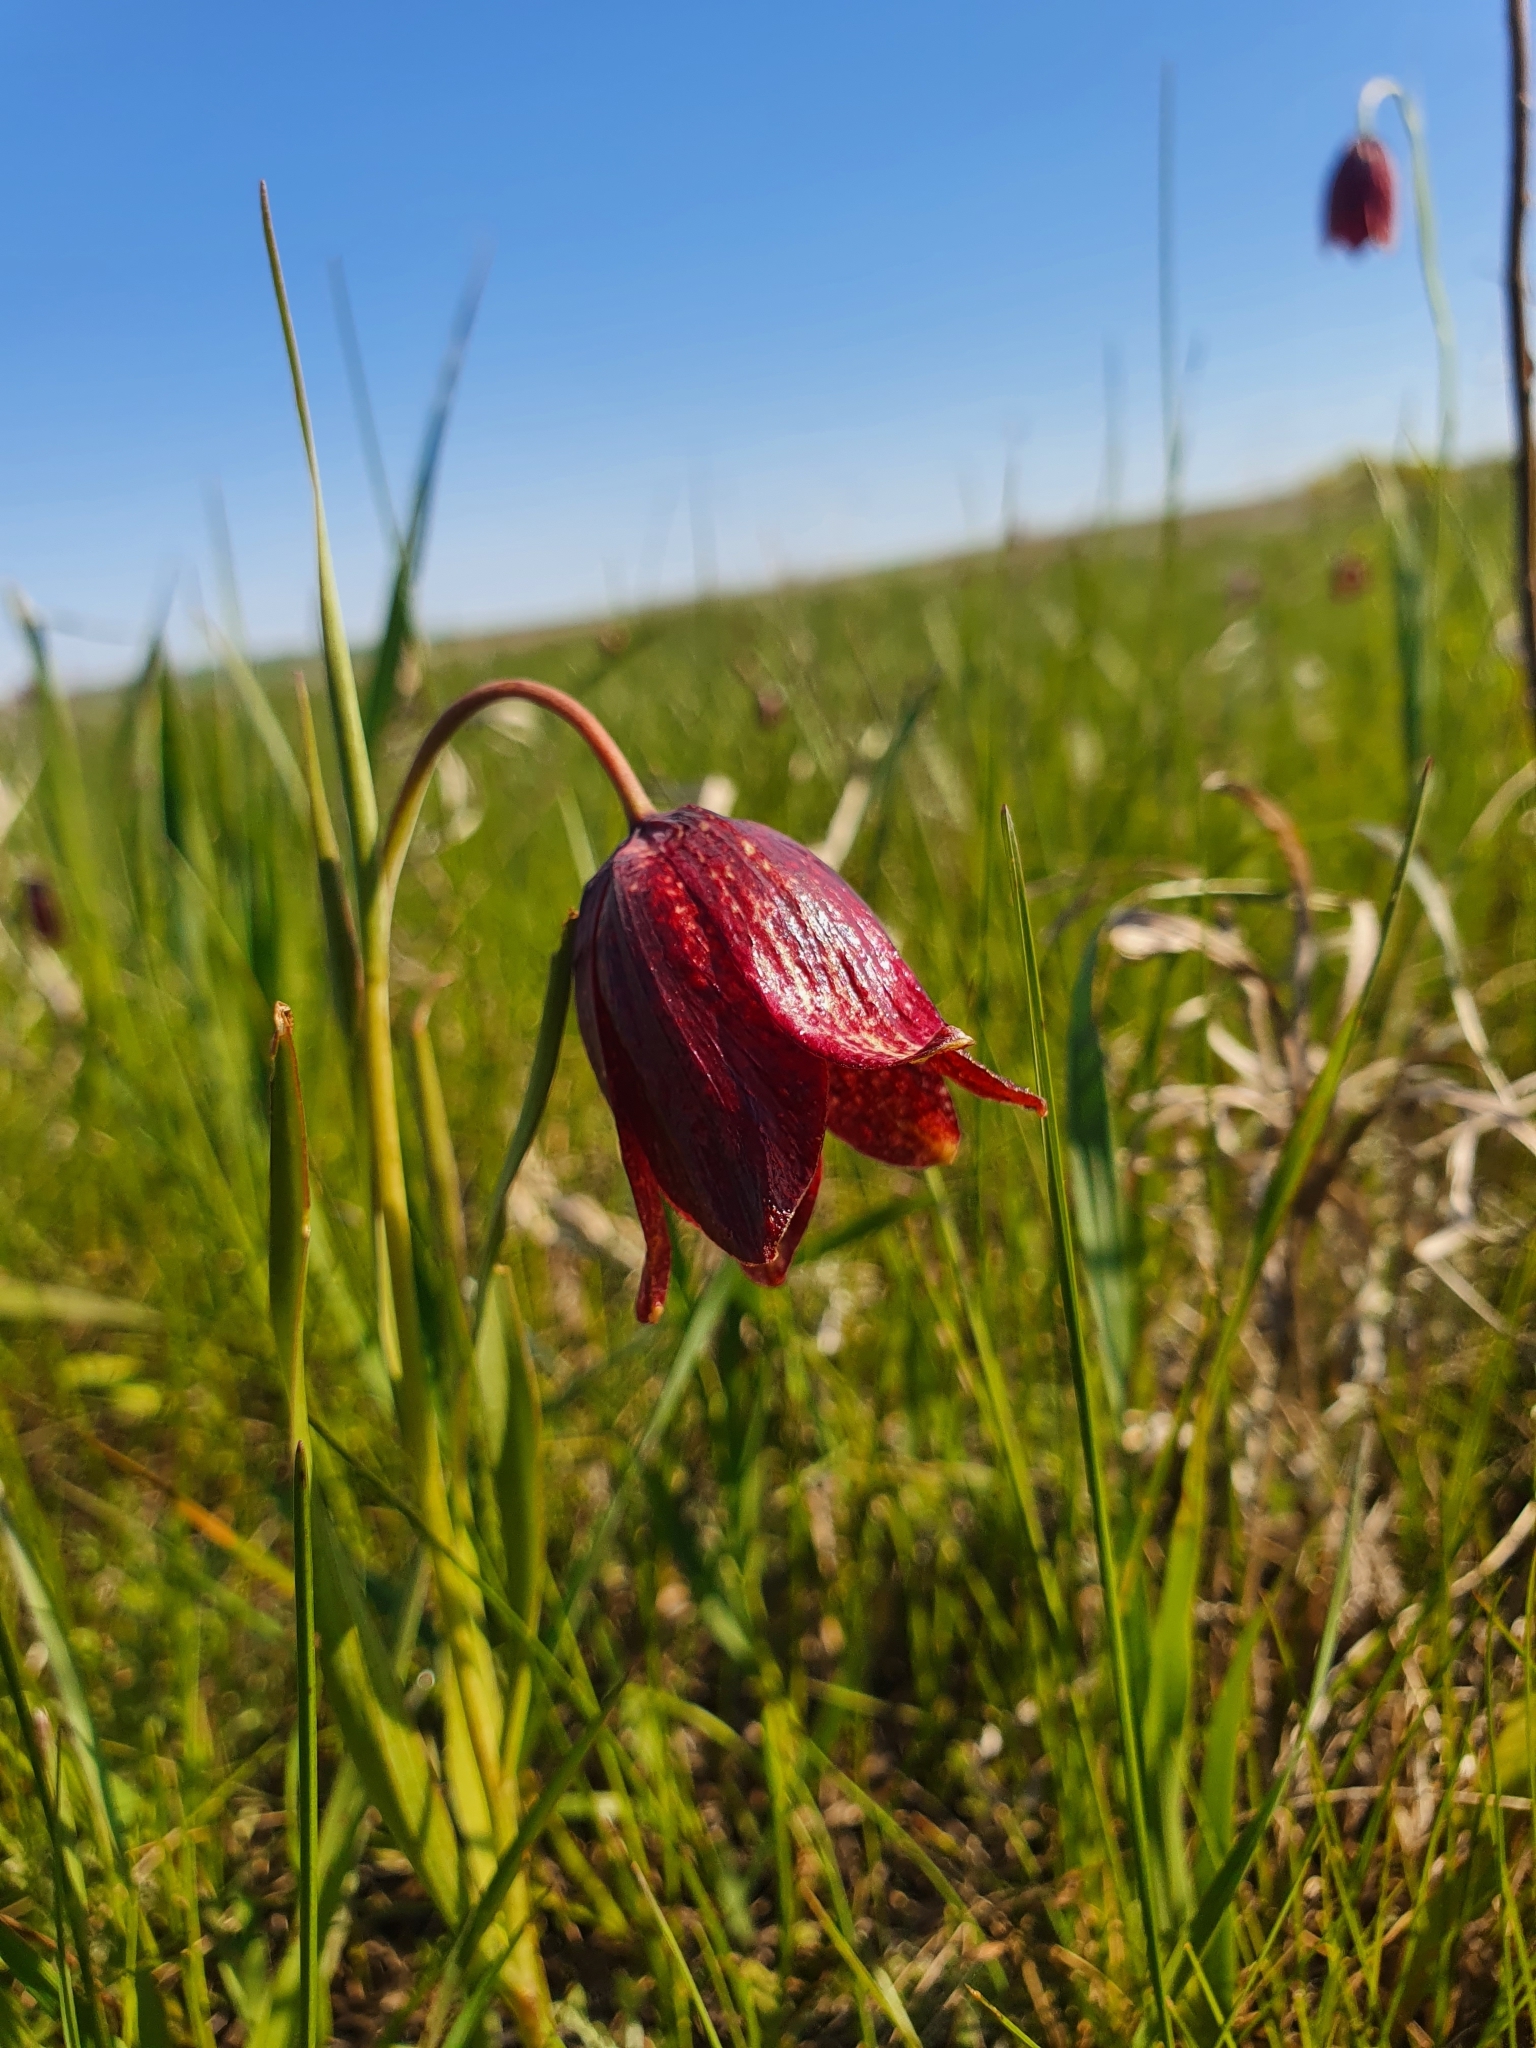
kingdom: Plantae
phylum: Tracheophyta
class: Liliopsida
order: Liliales
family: Liliaceae
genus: Fritillaria
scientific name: Fritillaria meleagroides
